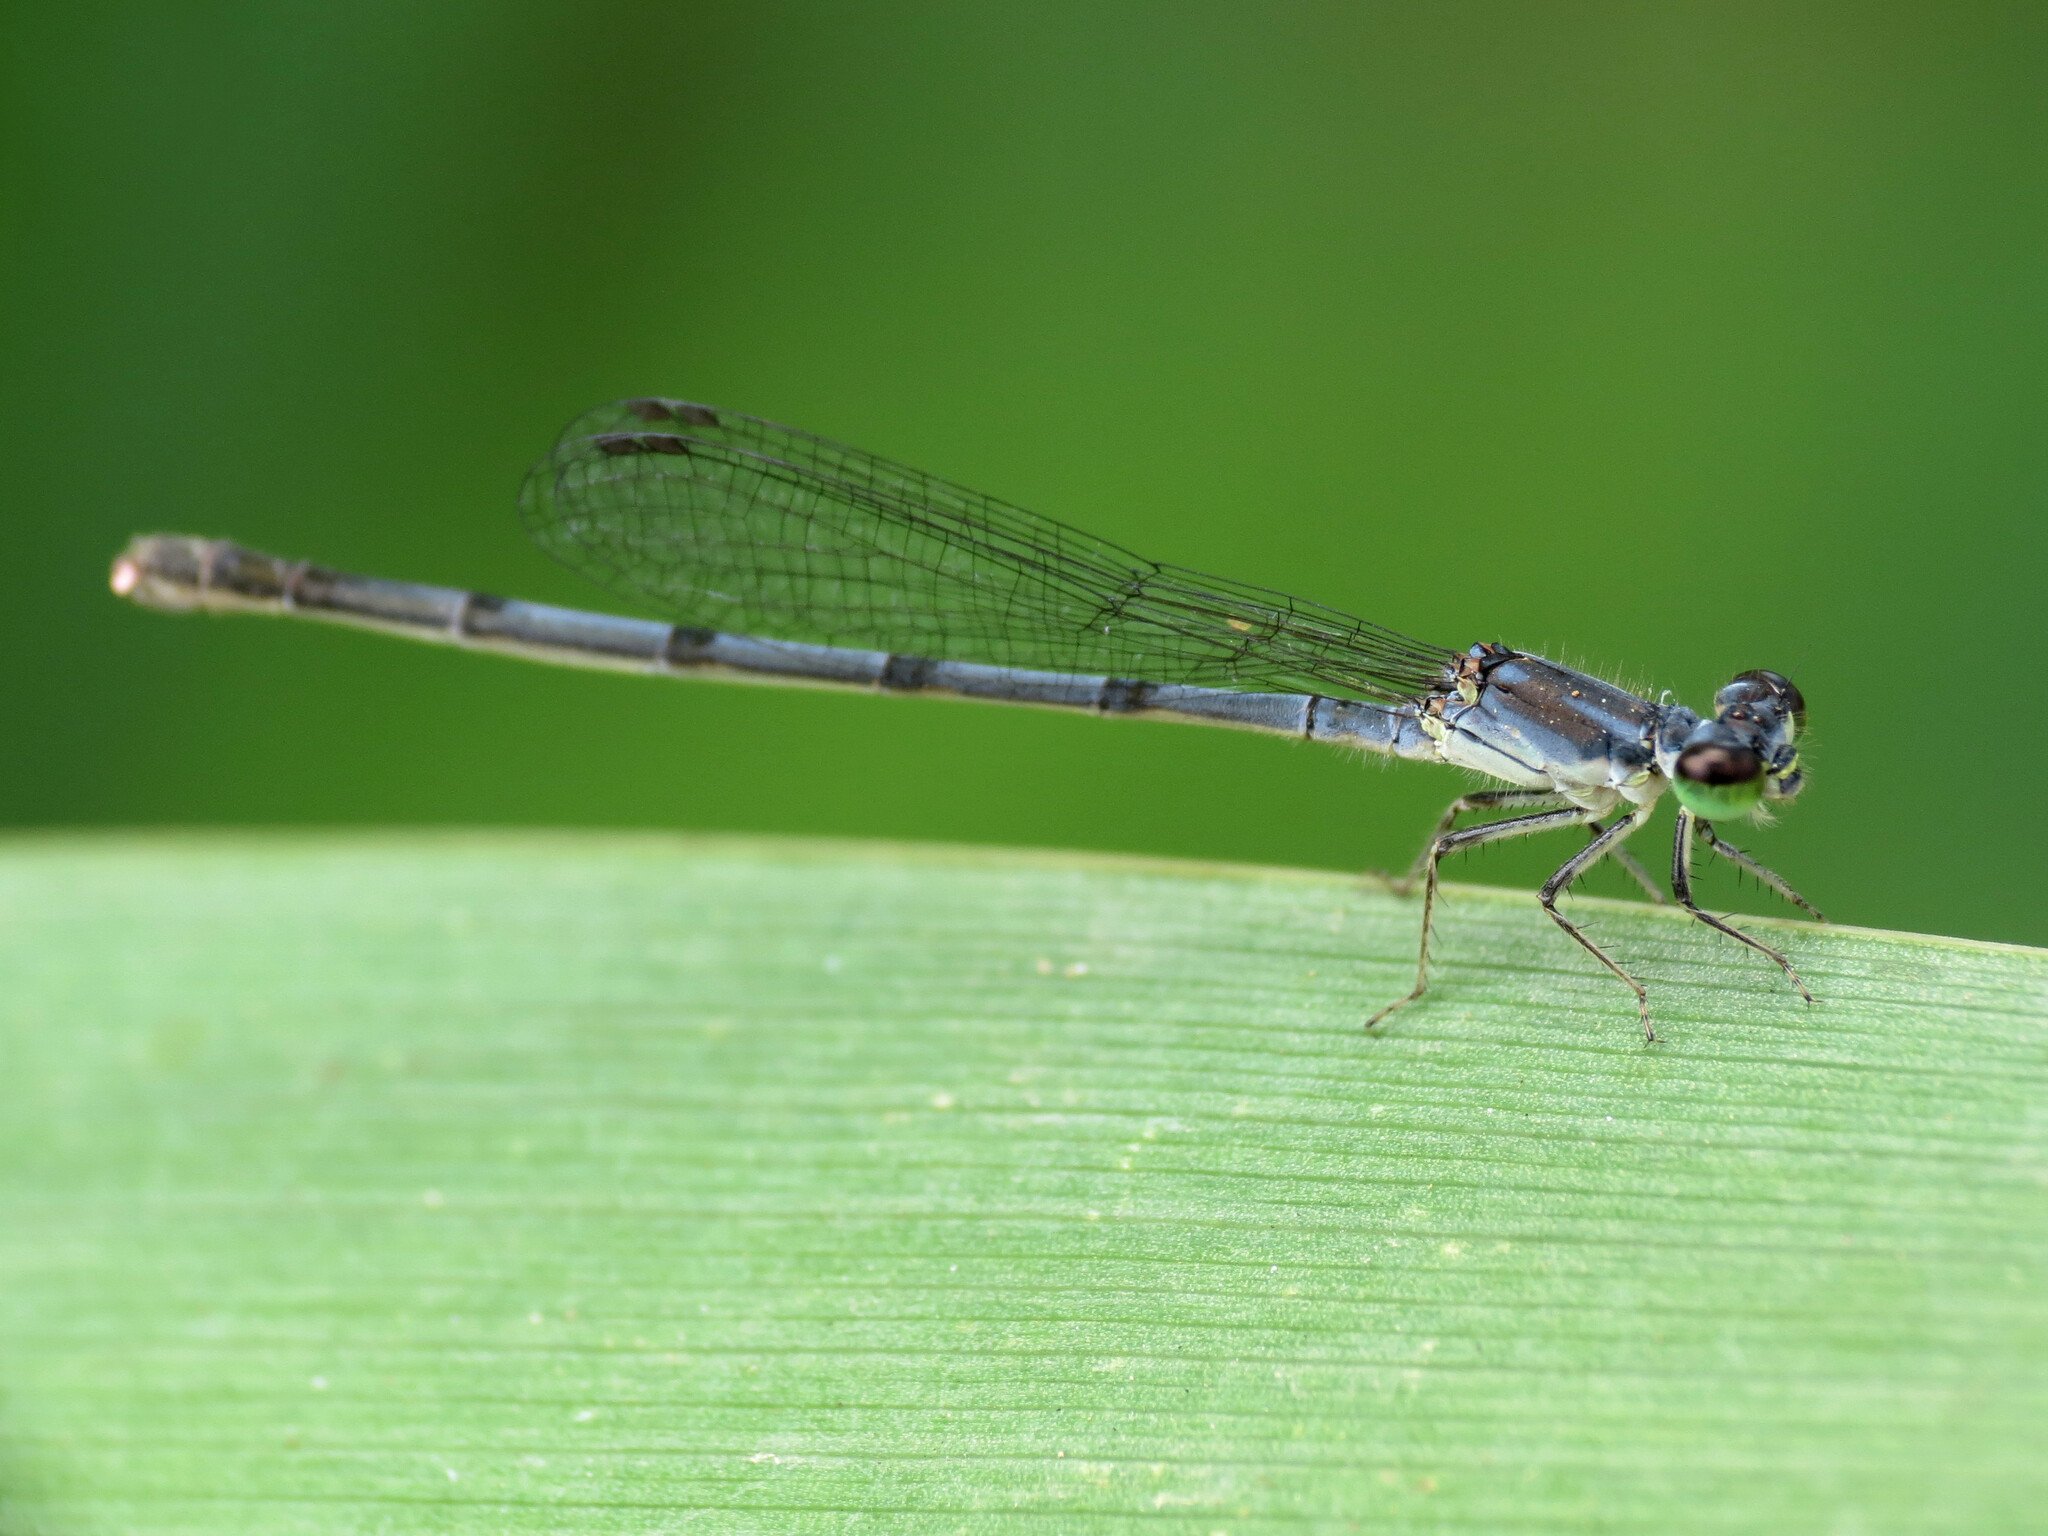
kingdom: Animalia
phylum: Arthropoda
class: Insecta
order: Odonata
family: Coenagrionidae
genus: Ischnura
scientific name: Ischnura posita
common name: Fragile forktail
